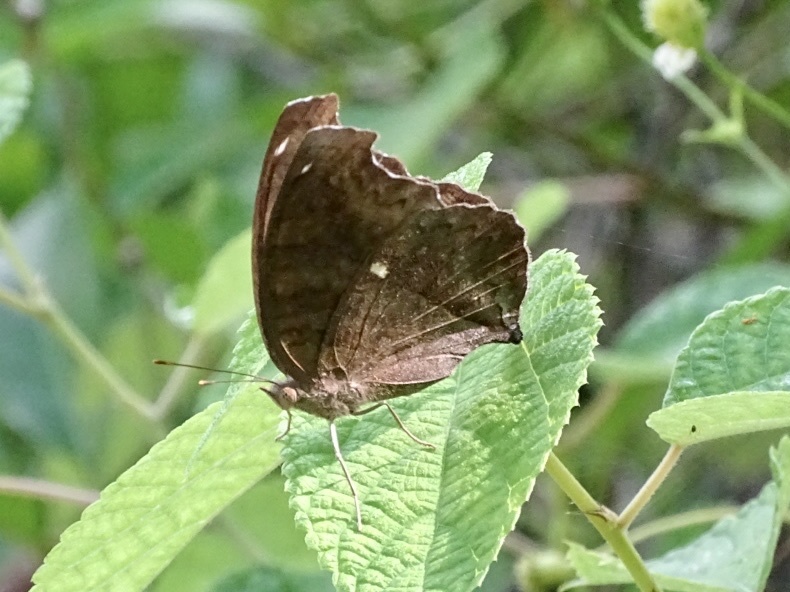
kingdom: Animalia
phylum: Arthropoda
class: Insecta
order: Lepidoptera
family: Nymphalidae
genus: Junonia
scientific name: Junonia iphita
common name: Chocolate pansy
